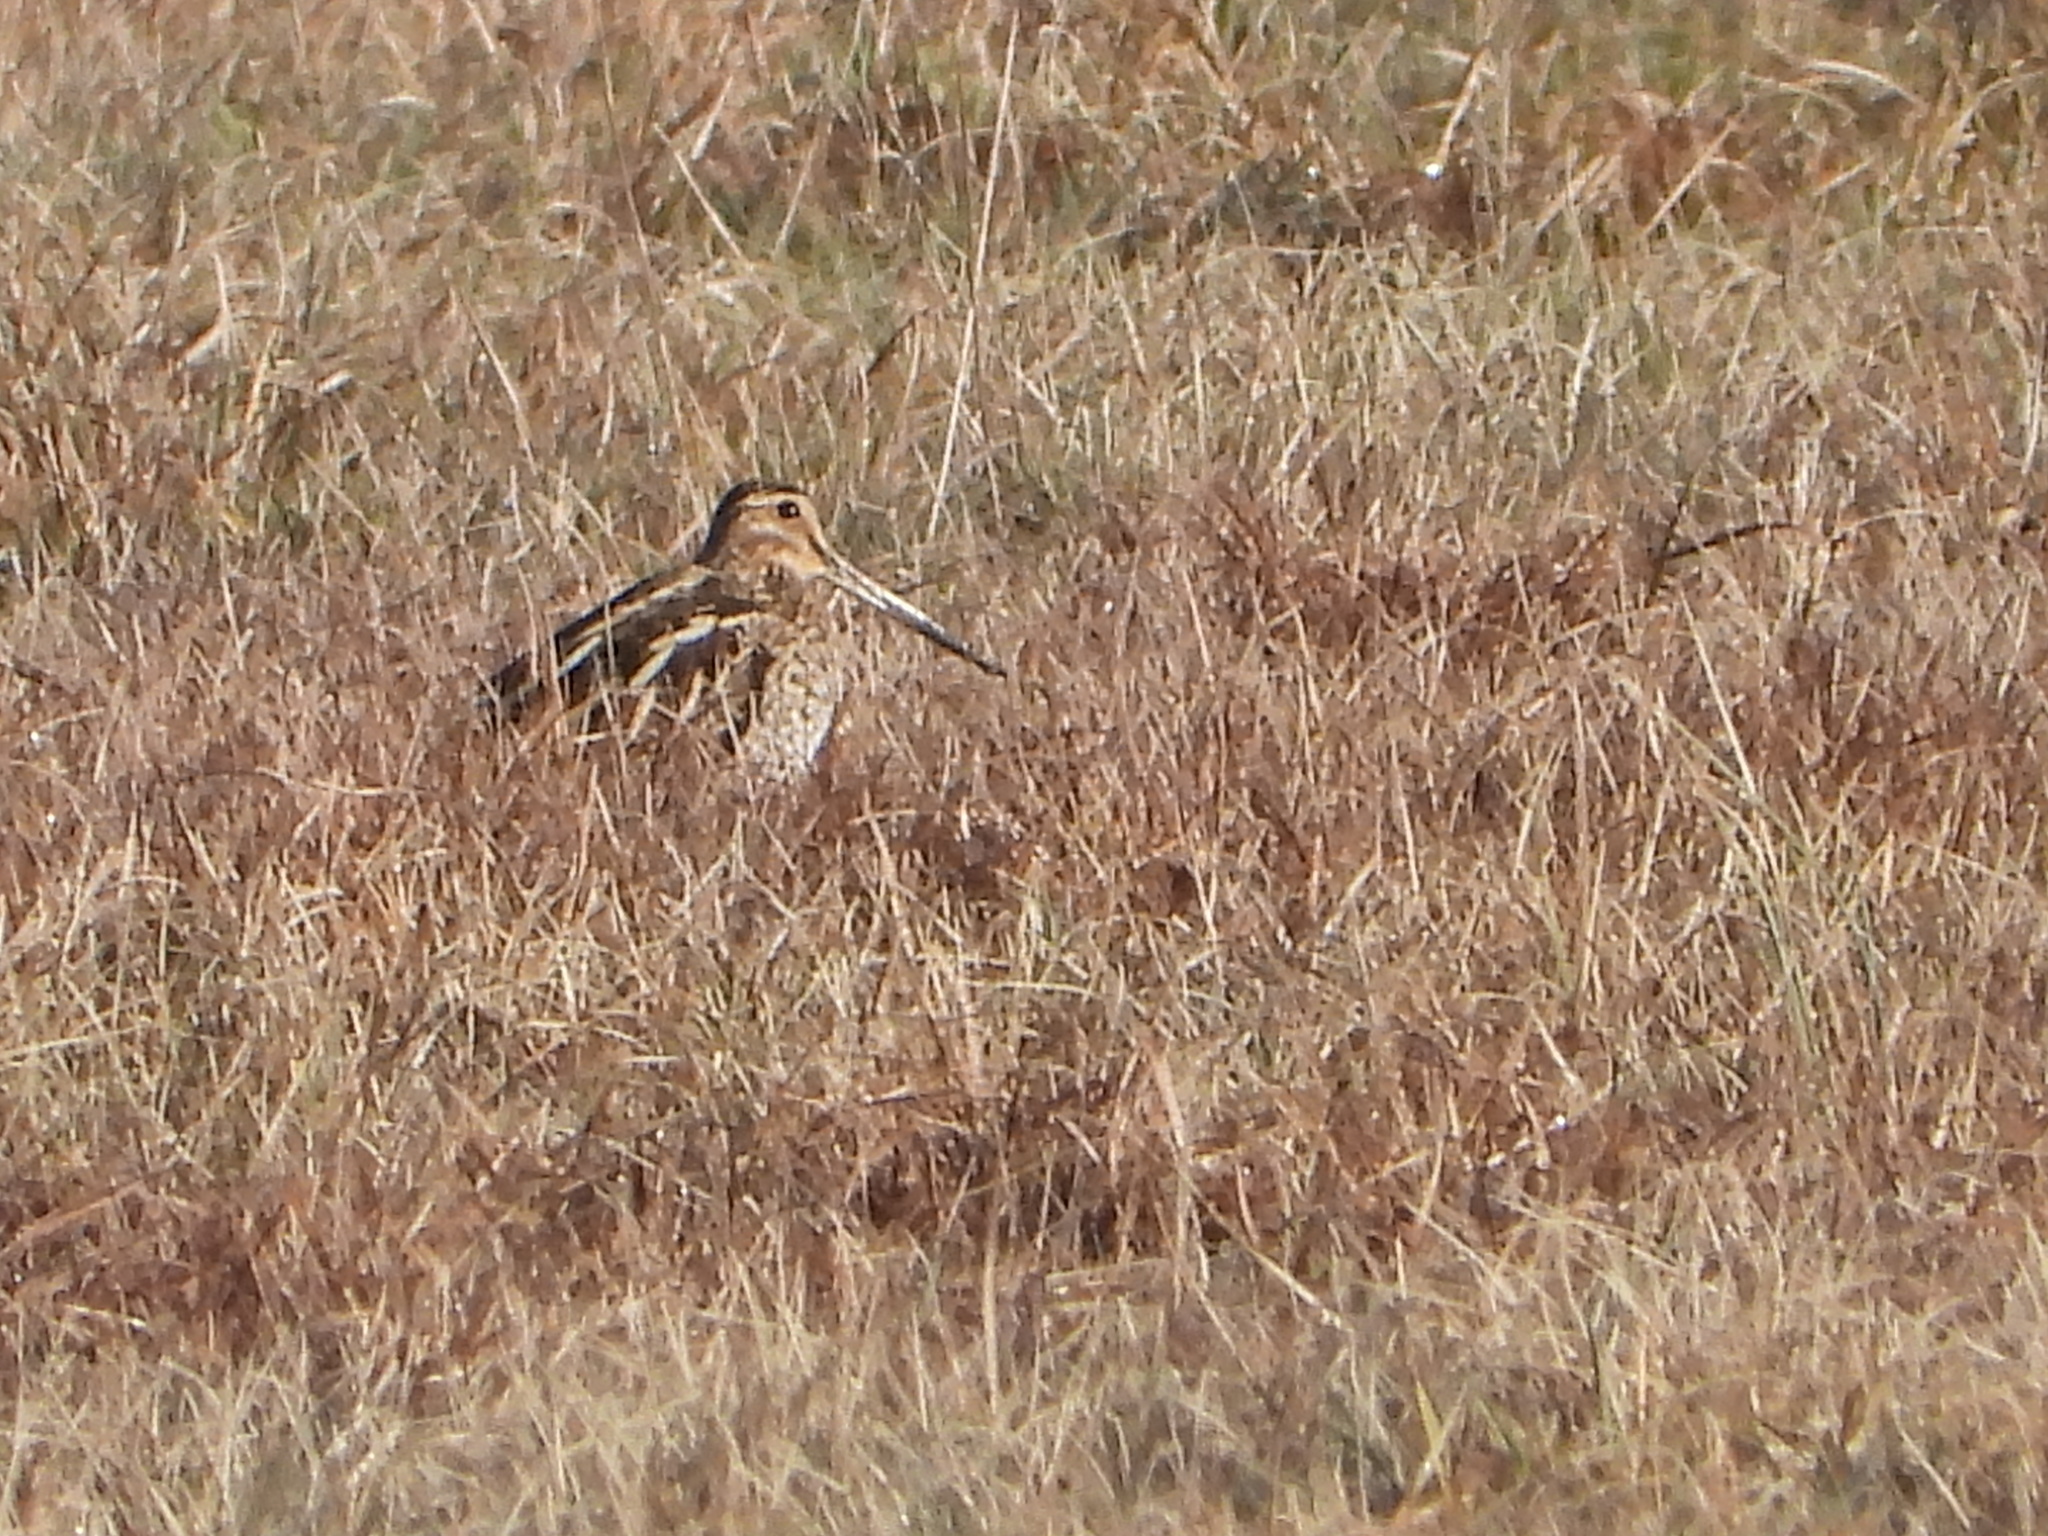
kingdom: Animalia
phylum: Chordata
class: Aves
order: Charadriiformes
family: Scolopacidae
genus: Gallinago
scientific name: Gallinago gallinago
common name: Common snipe
